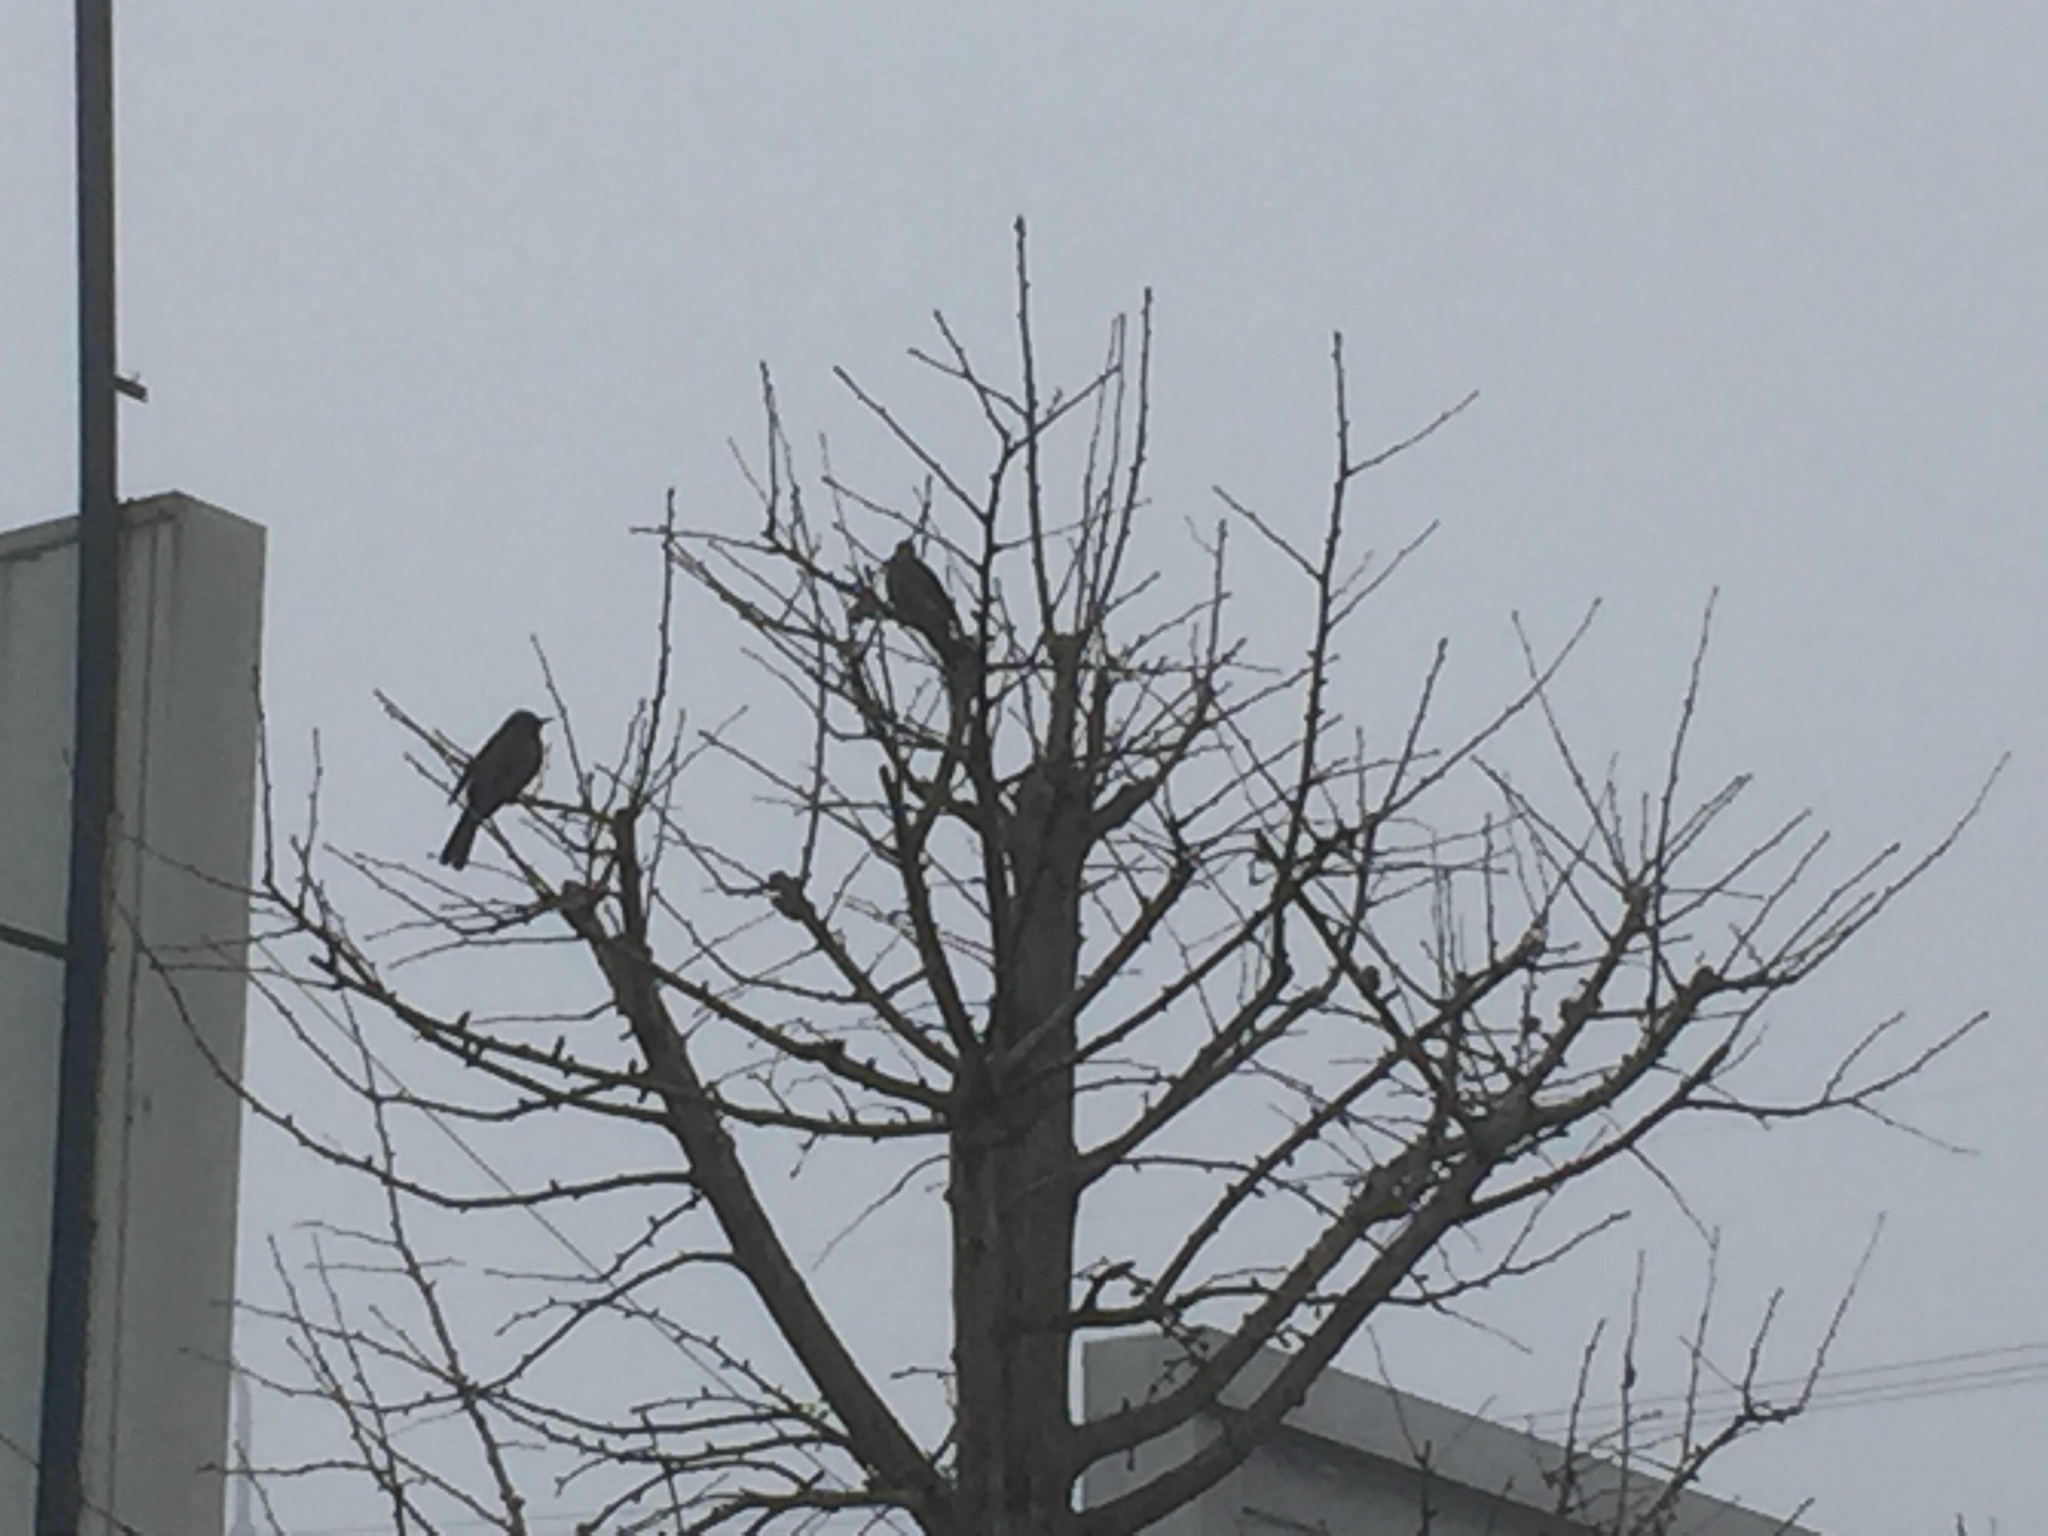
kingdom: Animalia
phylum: Chordata
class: Aves
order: Passeriformes
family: Pycnonotidae
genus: Hypsipetes
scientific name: Hypsipetes amaurotis
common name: Brown-eared bulbul
